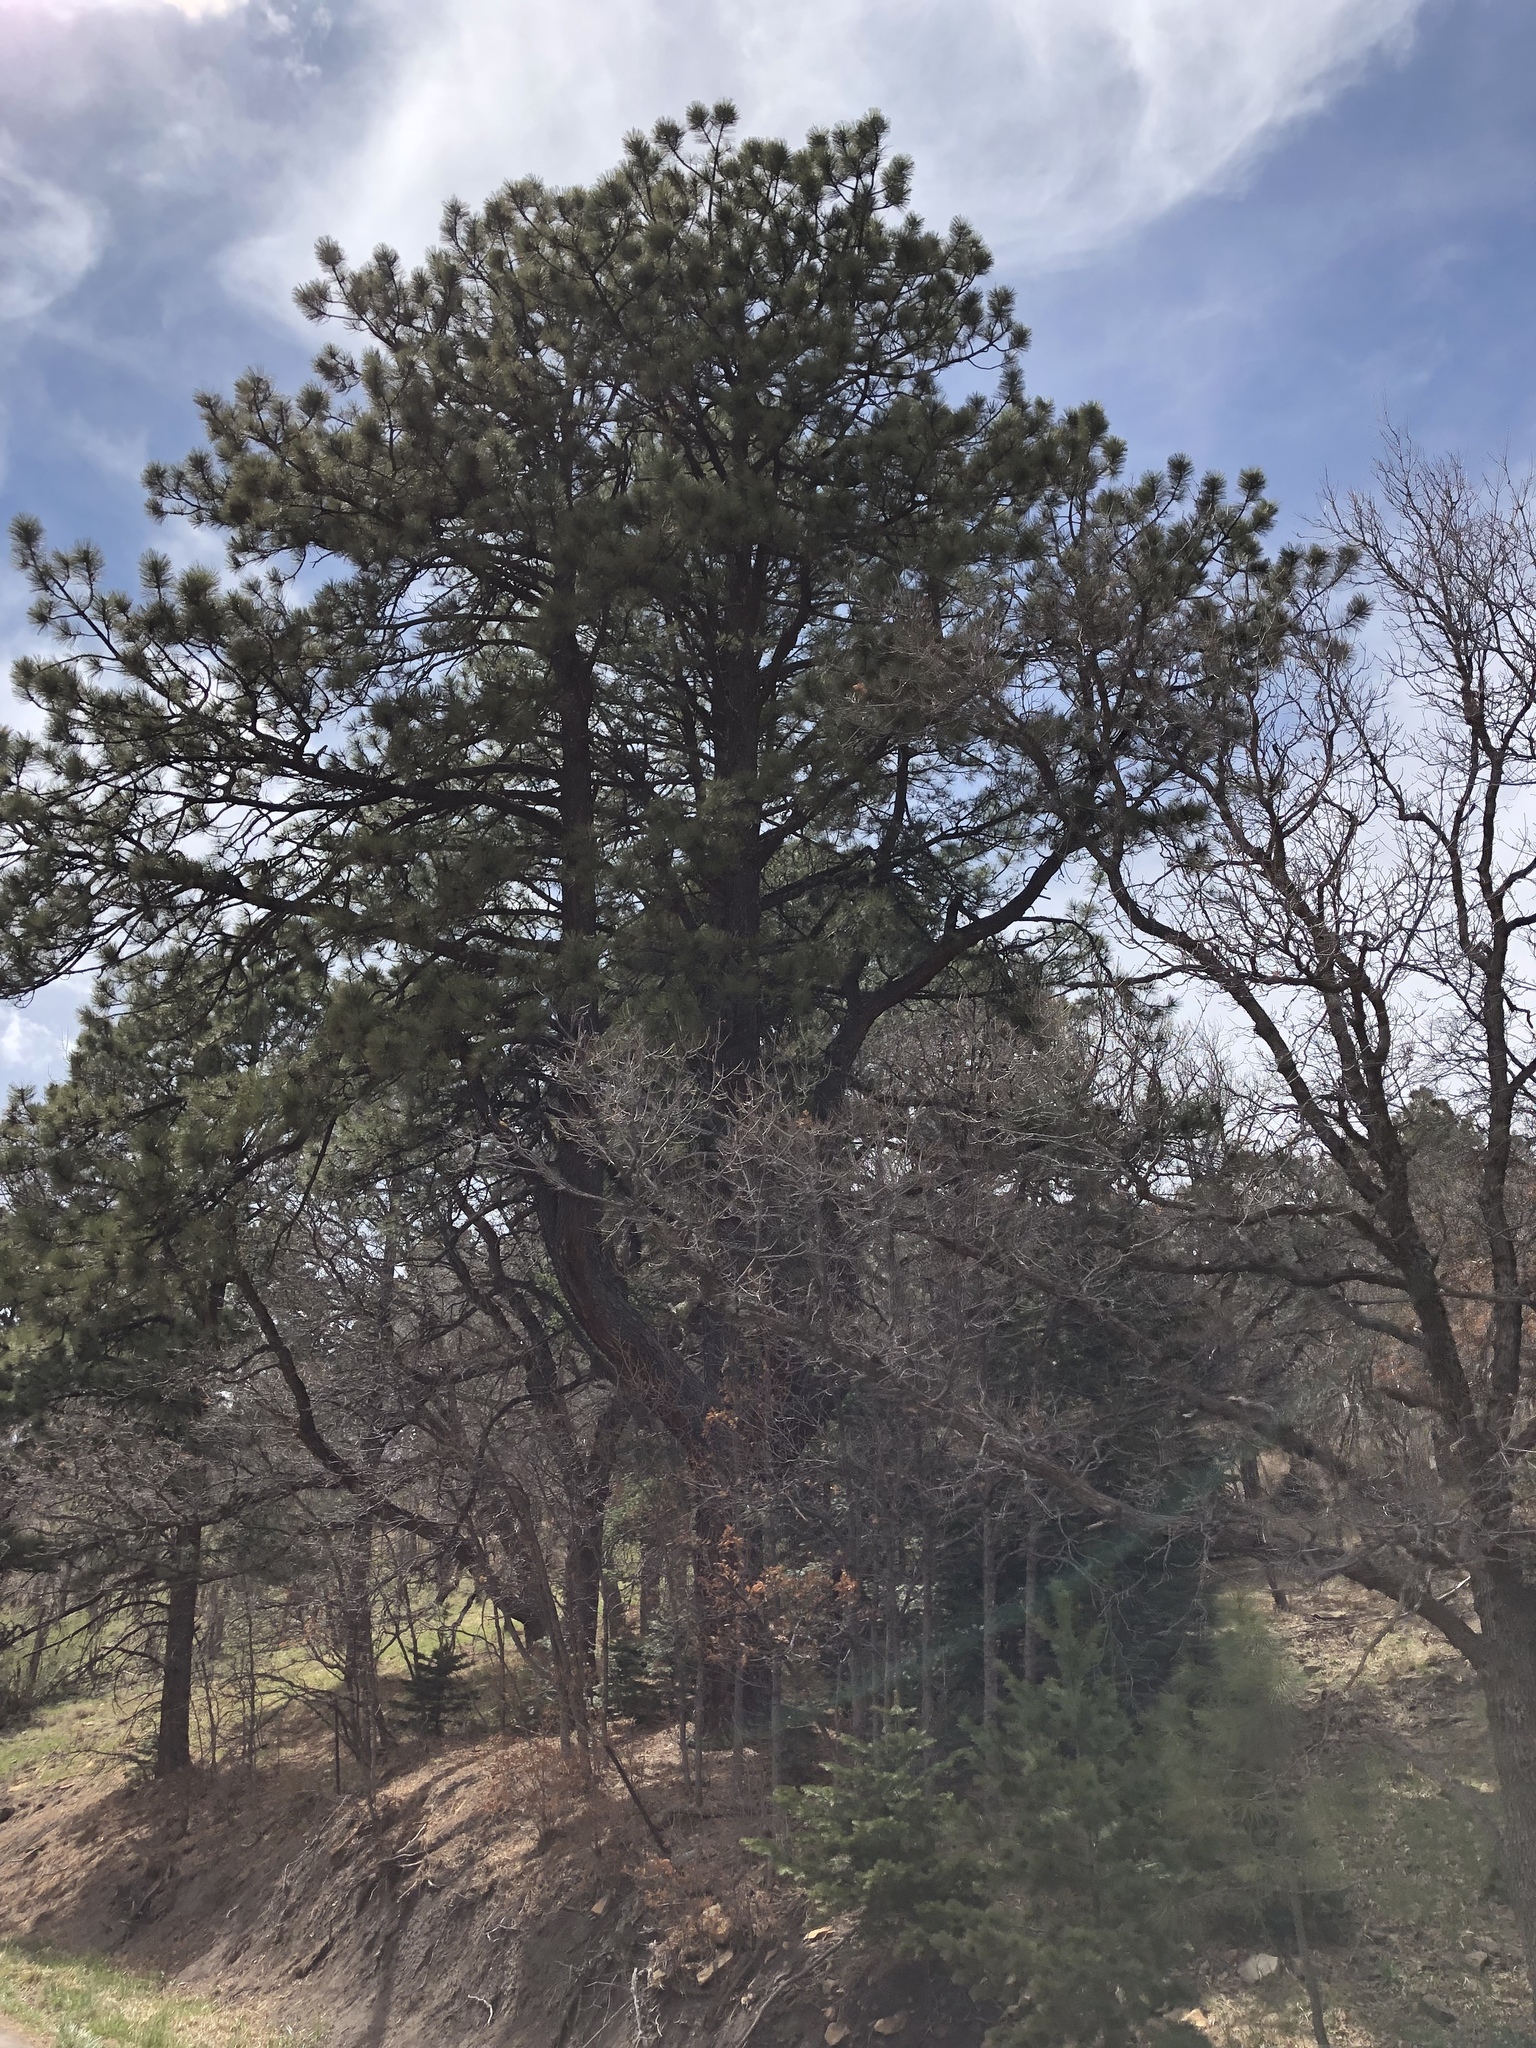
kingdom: Plantae
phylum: Tracheophyta
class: Pinopsida
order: Pinales
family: Pinaceae
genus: Pinus
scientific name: Pinus ponderosa
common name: Western yellow-pine
